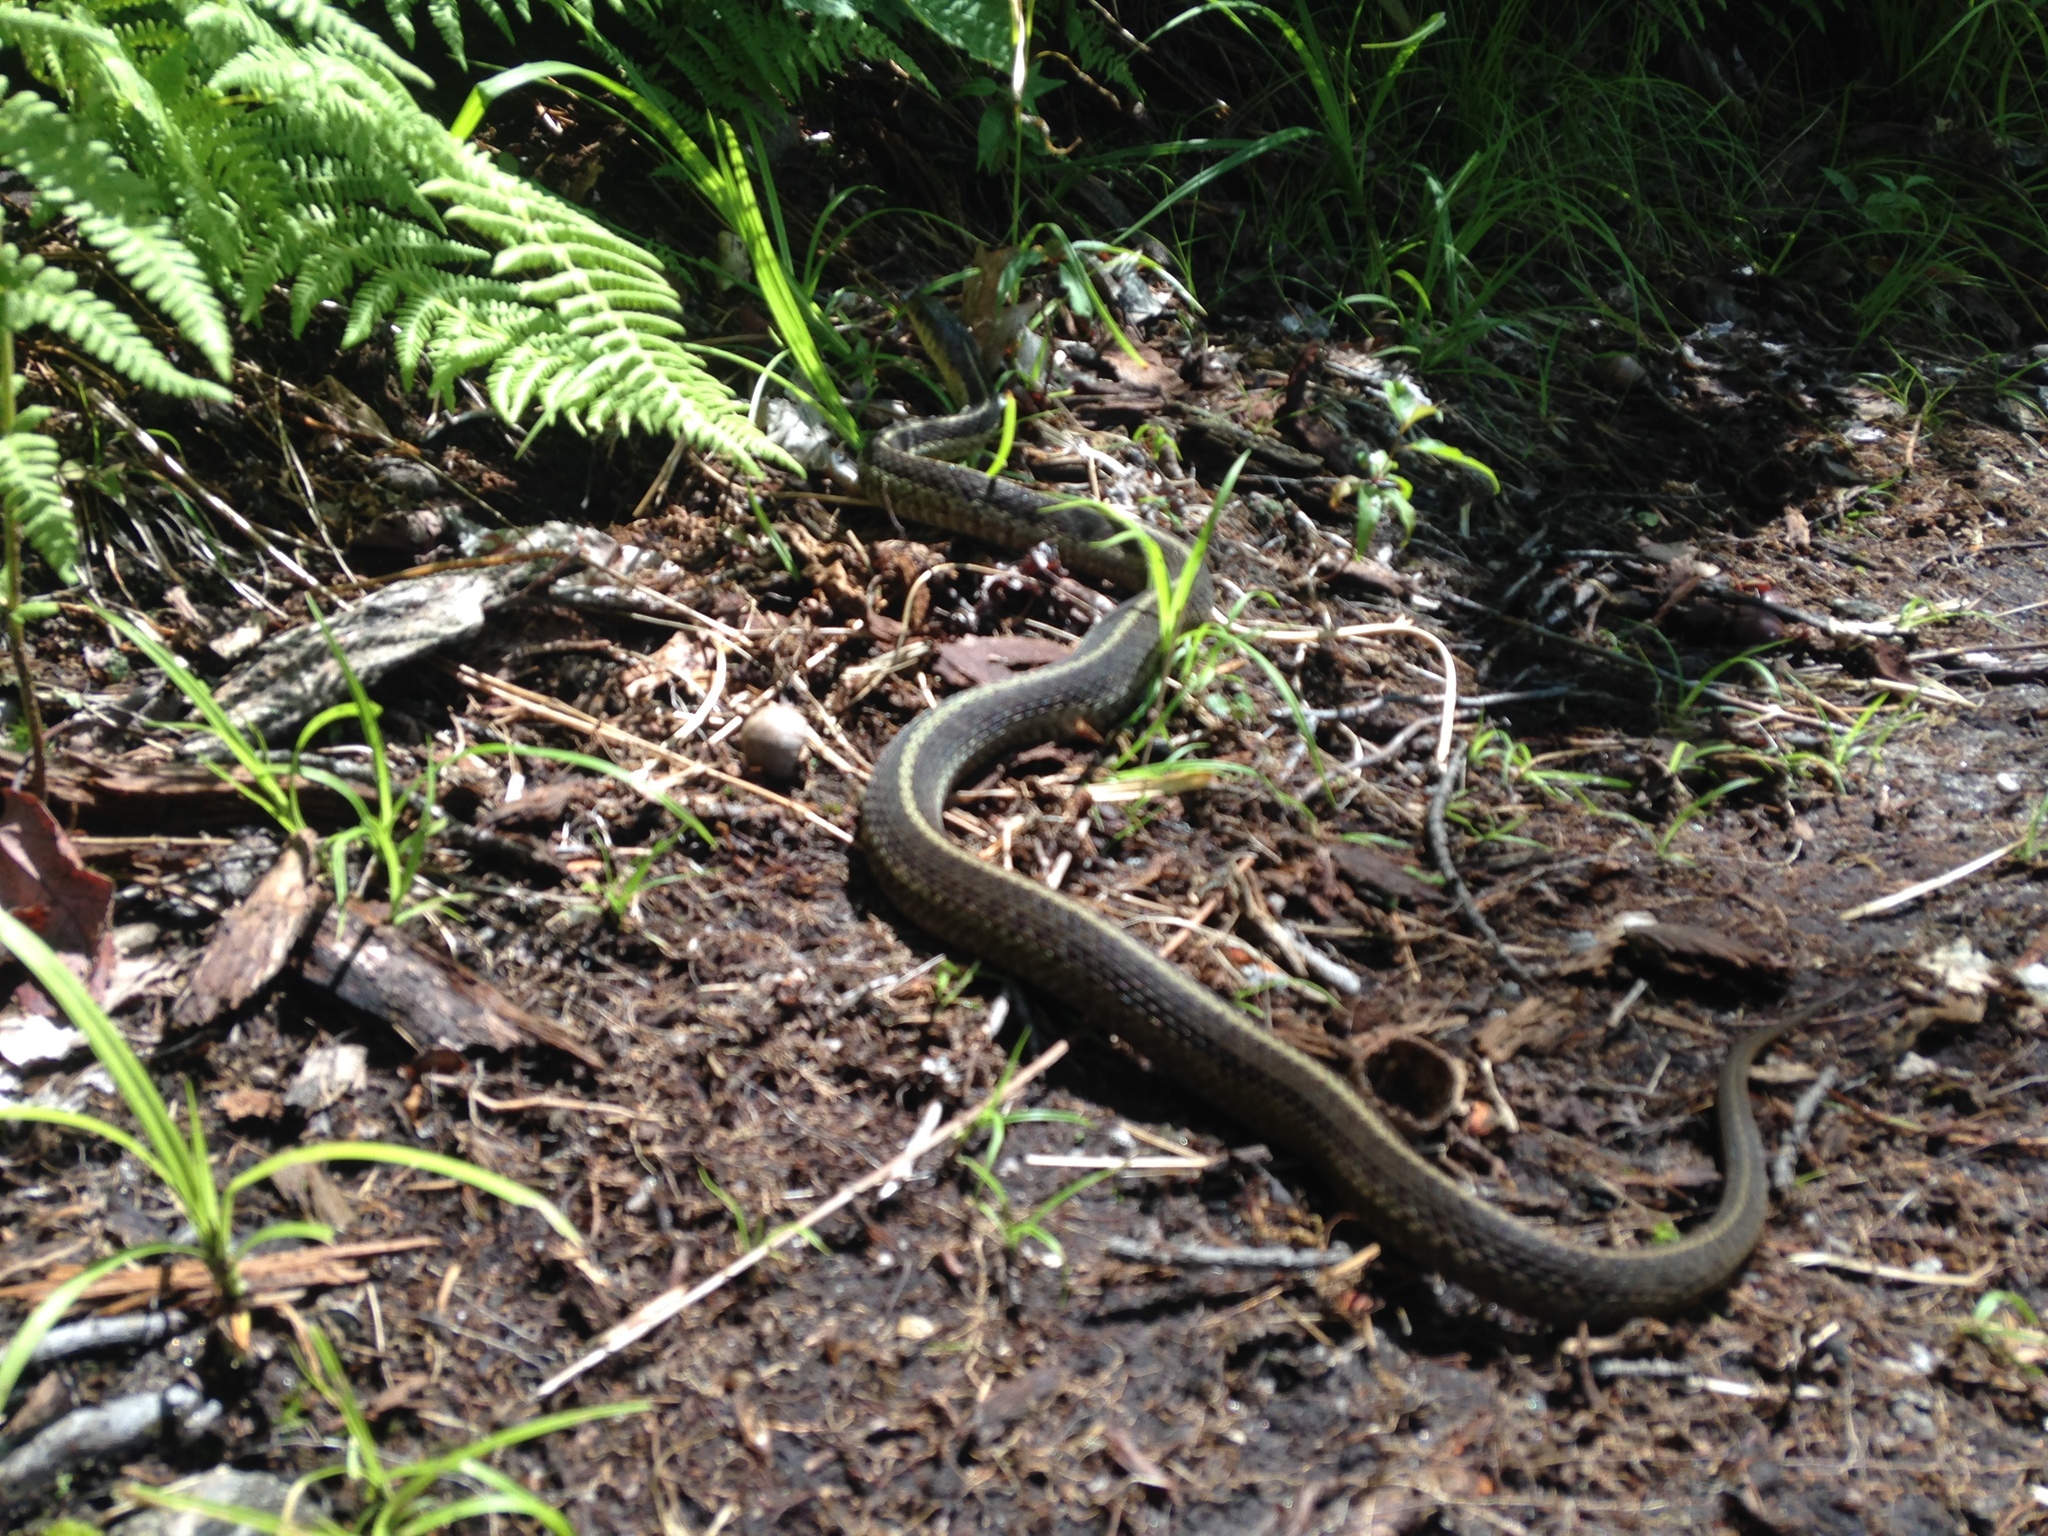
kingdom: Animalia
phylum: Chordata
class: Squamata
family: Colubridae
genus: Thamnophis
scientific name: Thamnophis sirtalis
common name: Common garter snake
